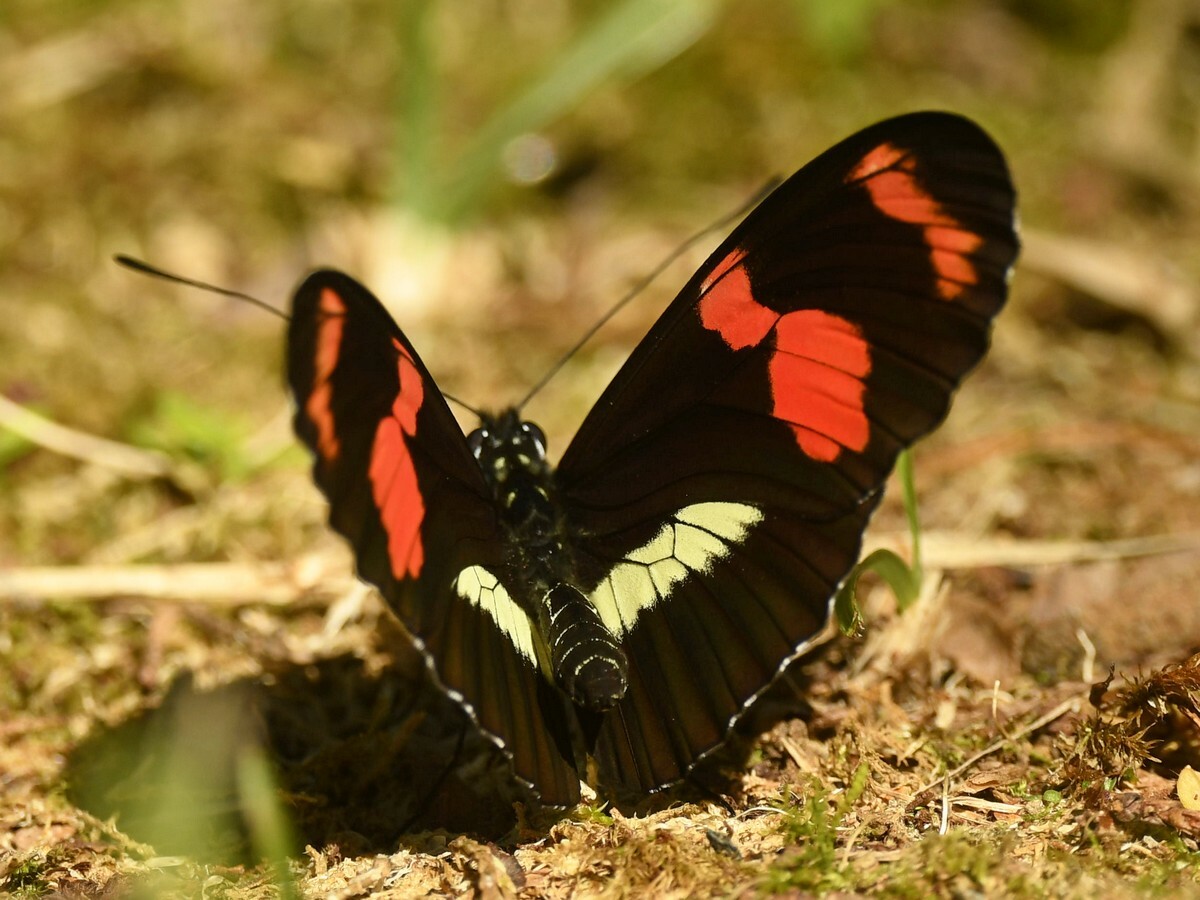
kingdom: Animalia
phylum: Arthropoda
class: Insecta
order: Lepidoptera
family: Nymphalidae
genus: Heliconius
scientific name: Heliconius telesiphe
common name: Telesiphe longwing
